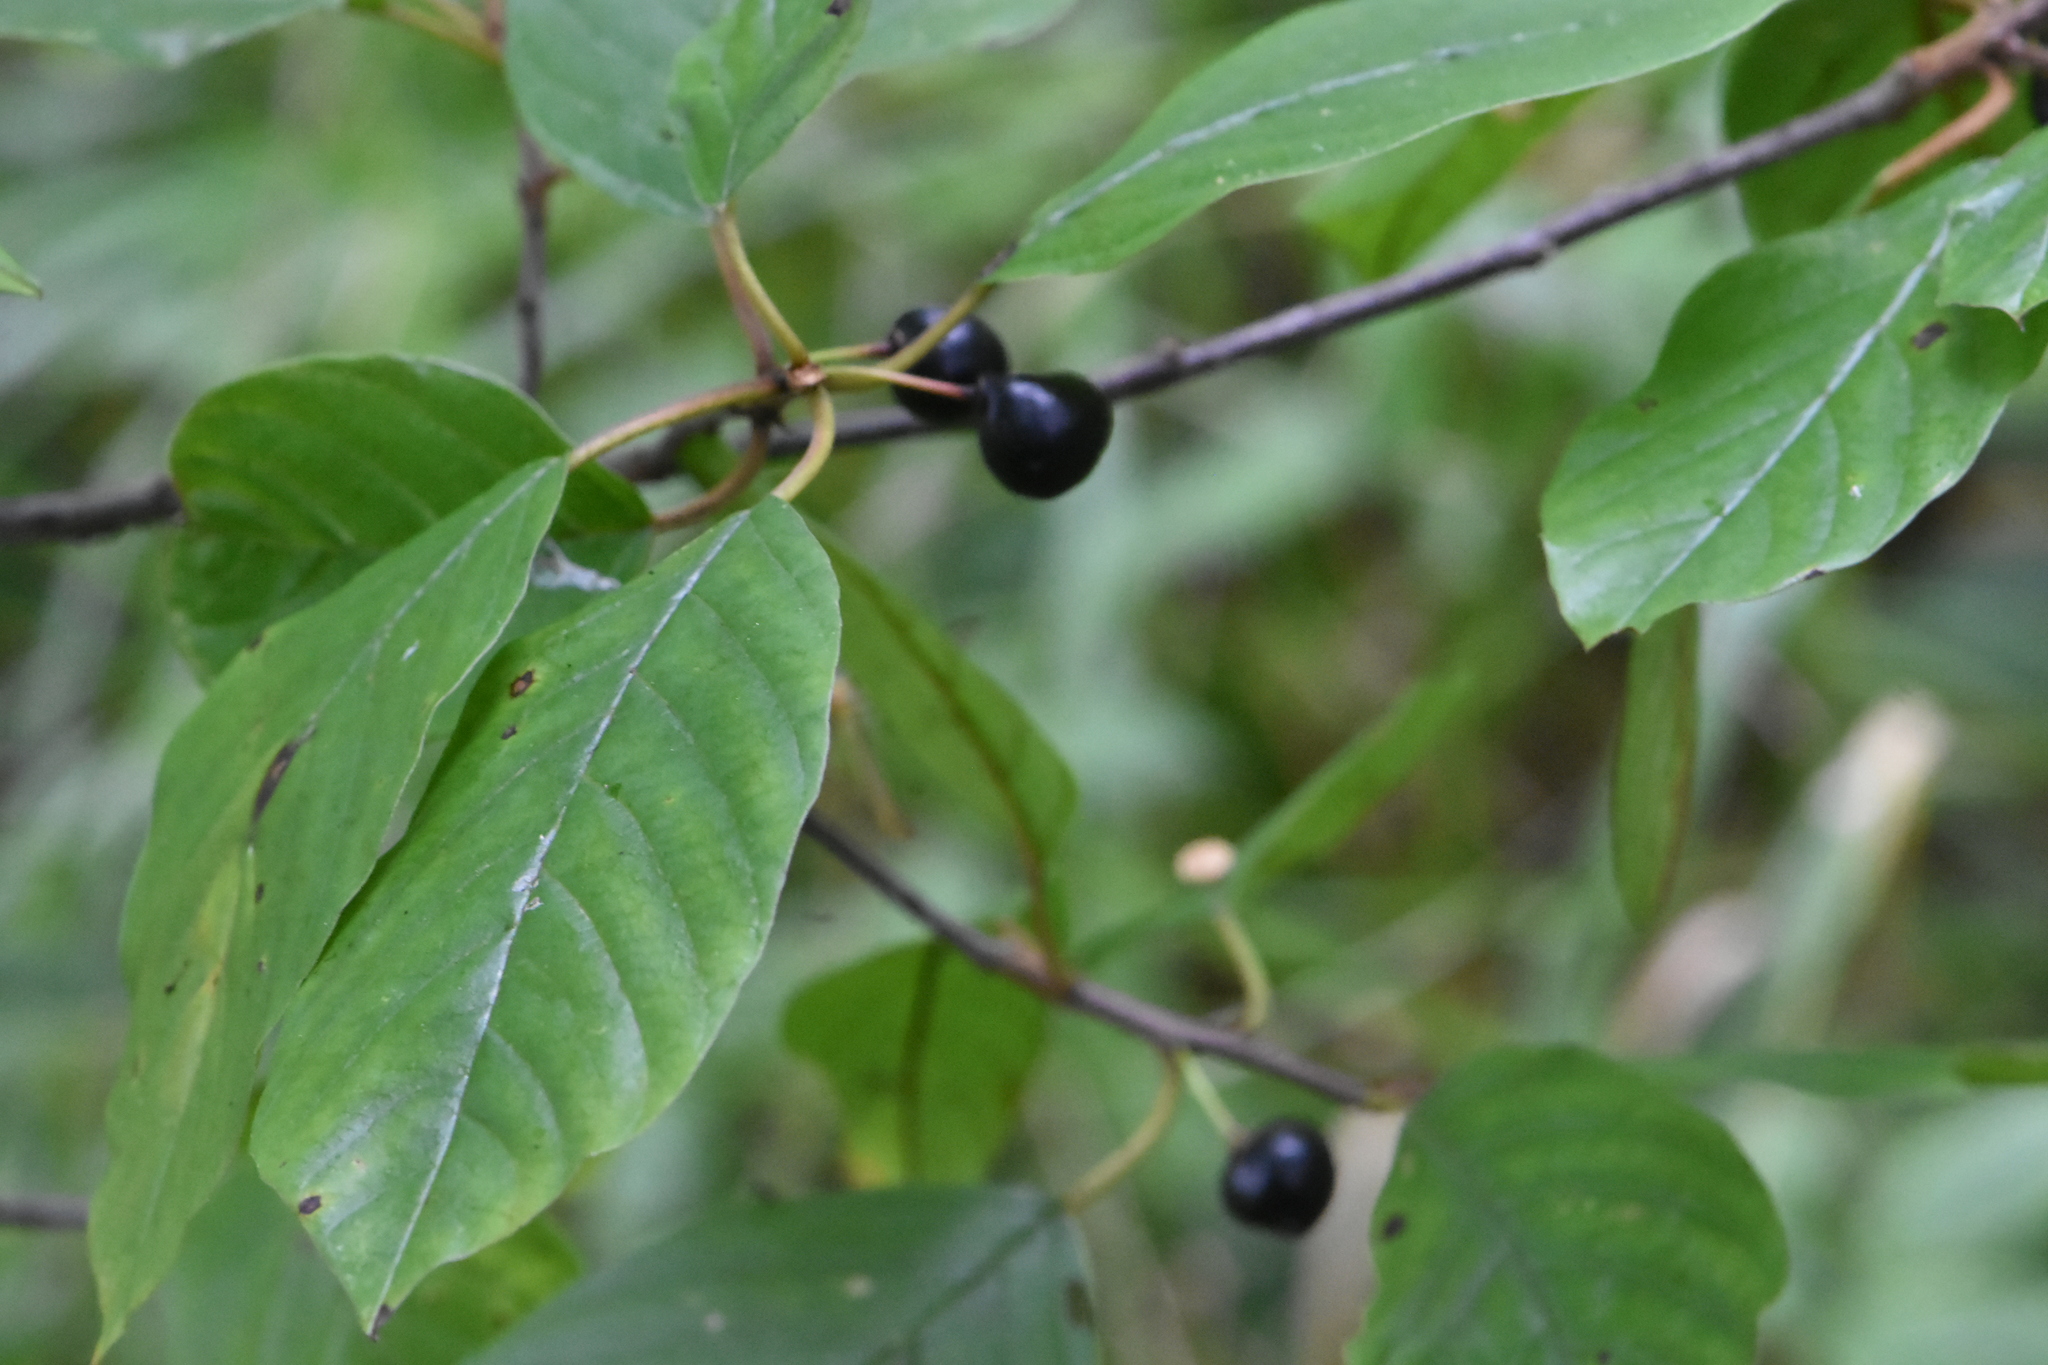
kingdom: Plantae
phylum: Tracheophyta
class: Magnoliopsida
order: Rosales
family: Rhamnaceae
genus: Frangula
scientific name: Frangula alnus
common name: Alder buckthorn
